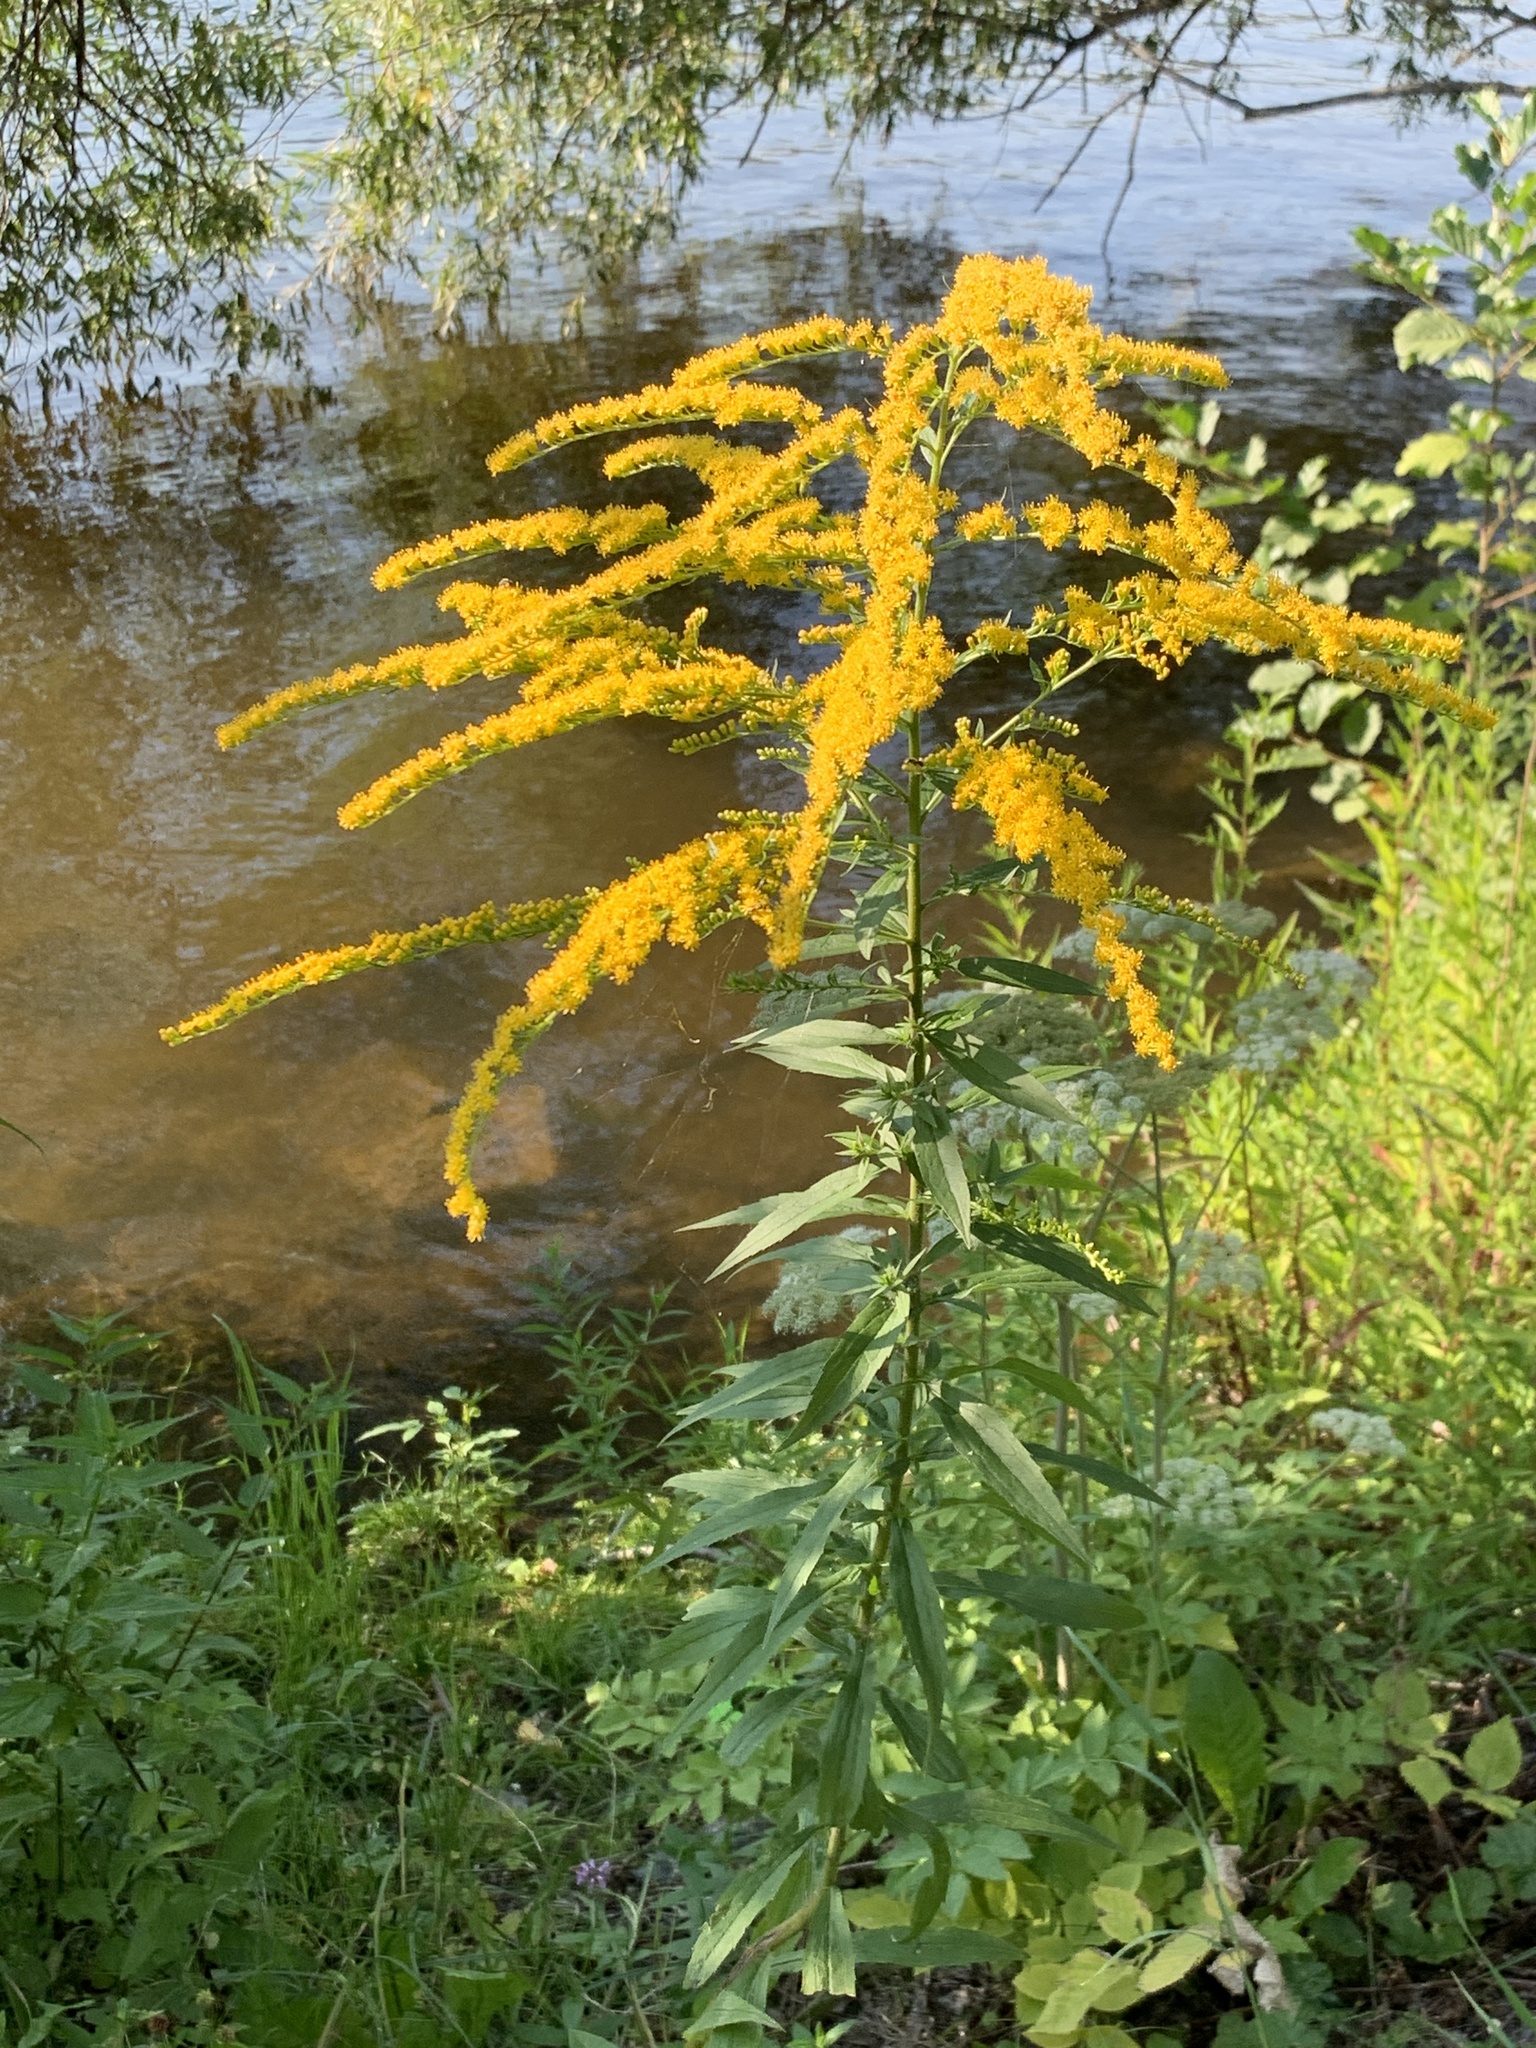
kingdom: Plantae
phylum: Tracheophyta
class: Magnoliopsida
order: Asterales
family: Asteraceae
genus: Solidago
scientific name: Solidago canadensis
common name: Canada goldenrod
